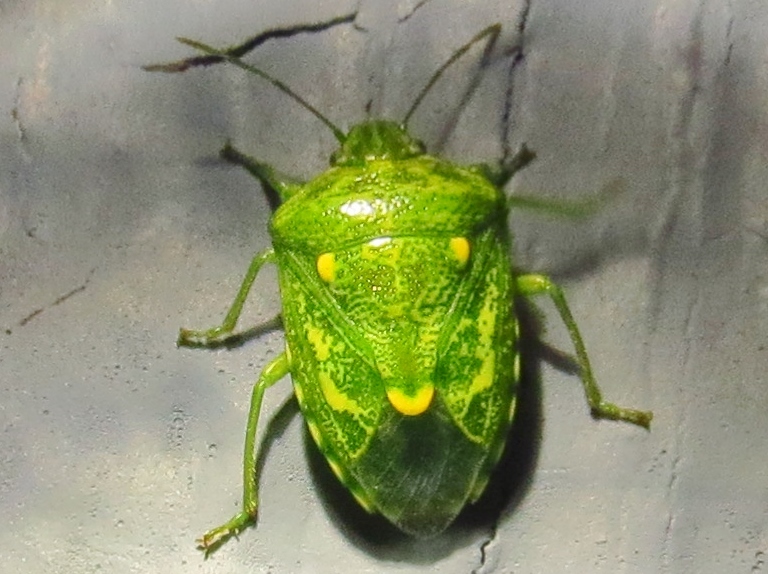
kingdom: Animalia
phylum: Arthropoda
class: Insecta
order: Hemiptera
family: Pentatomidae
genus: Banasa
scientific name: Banasa euchlora
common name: Cedar berry bug
